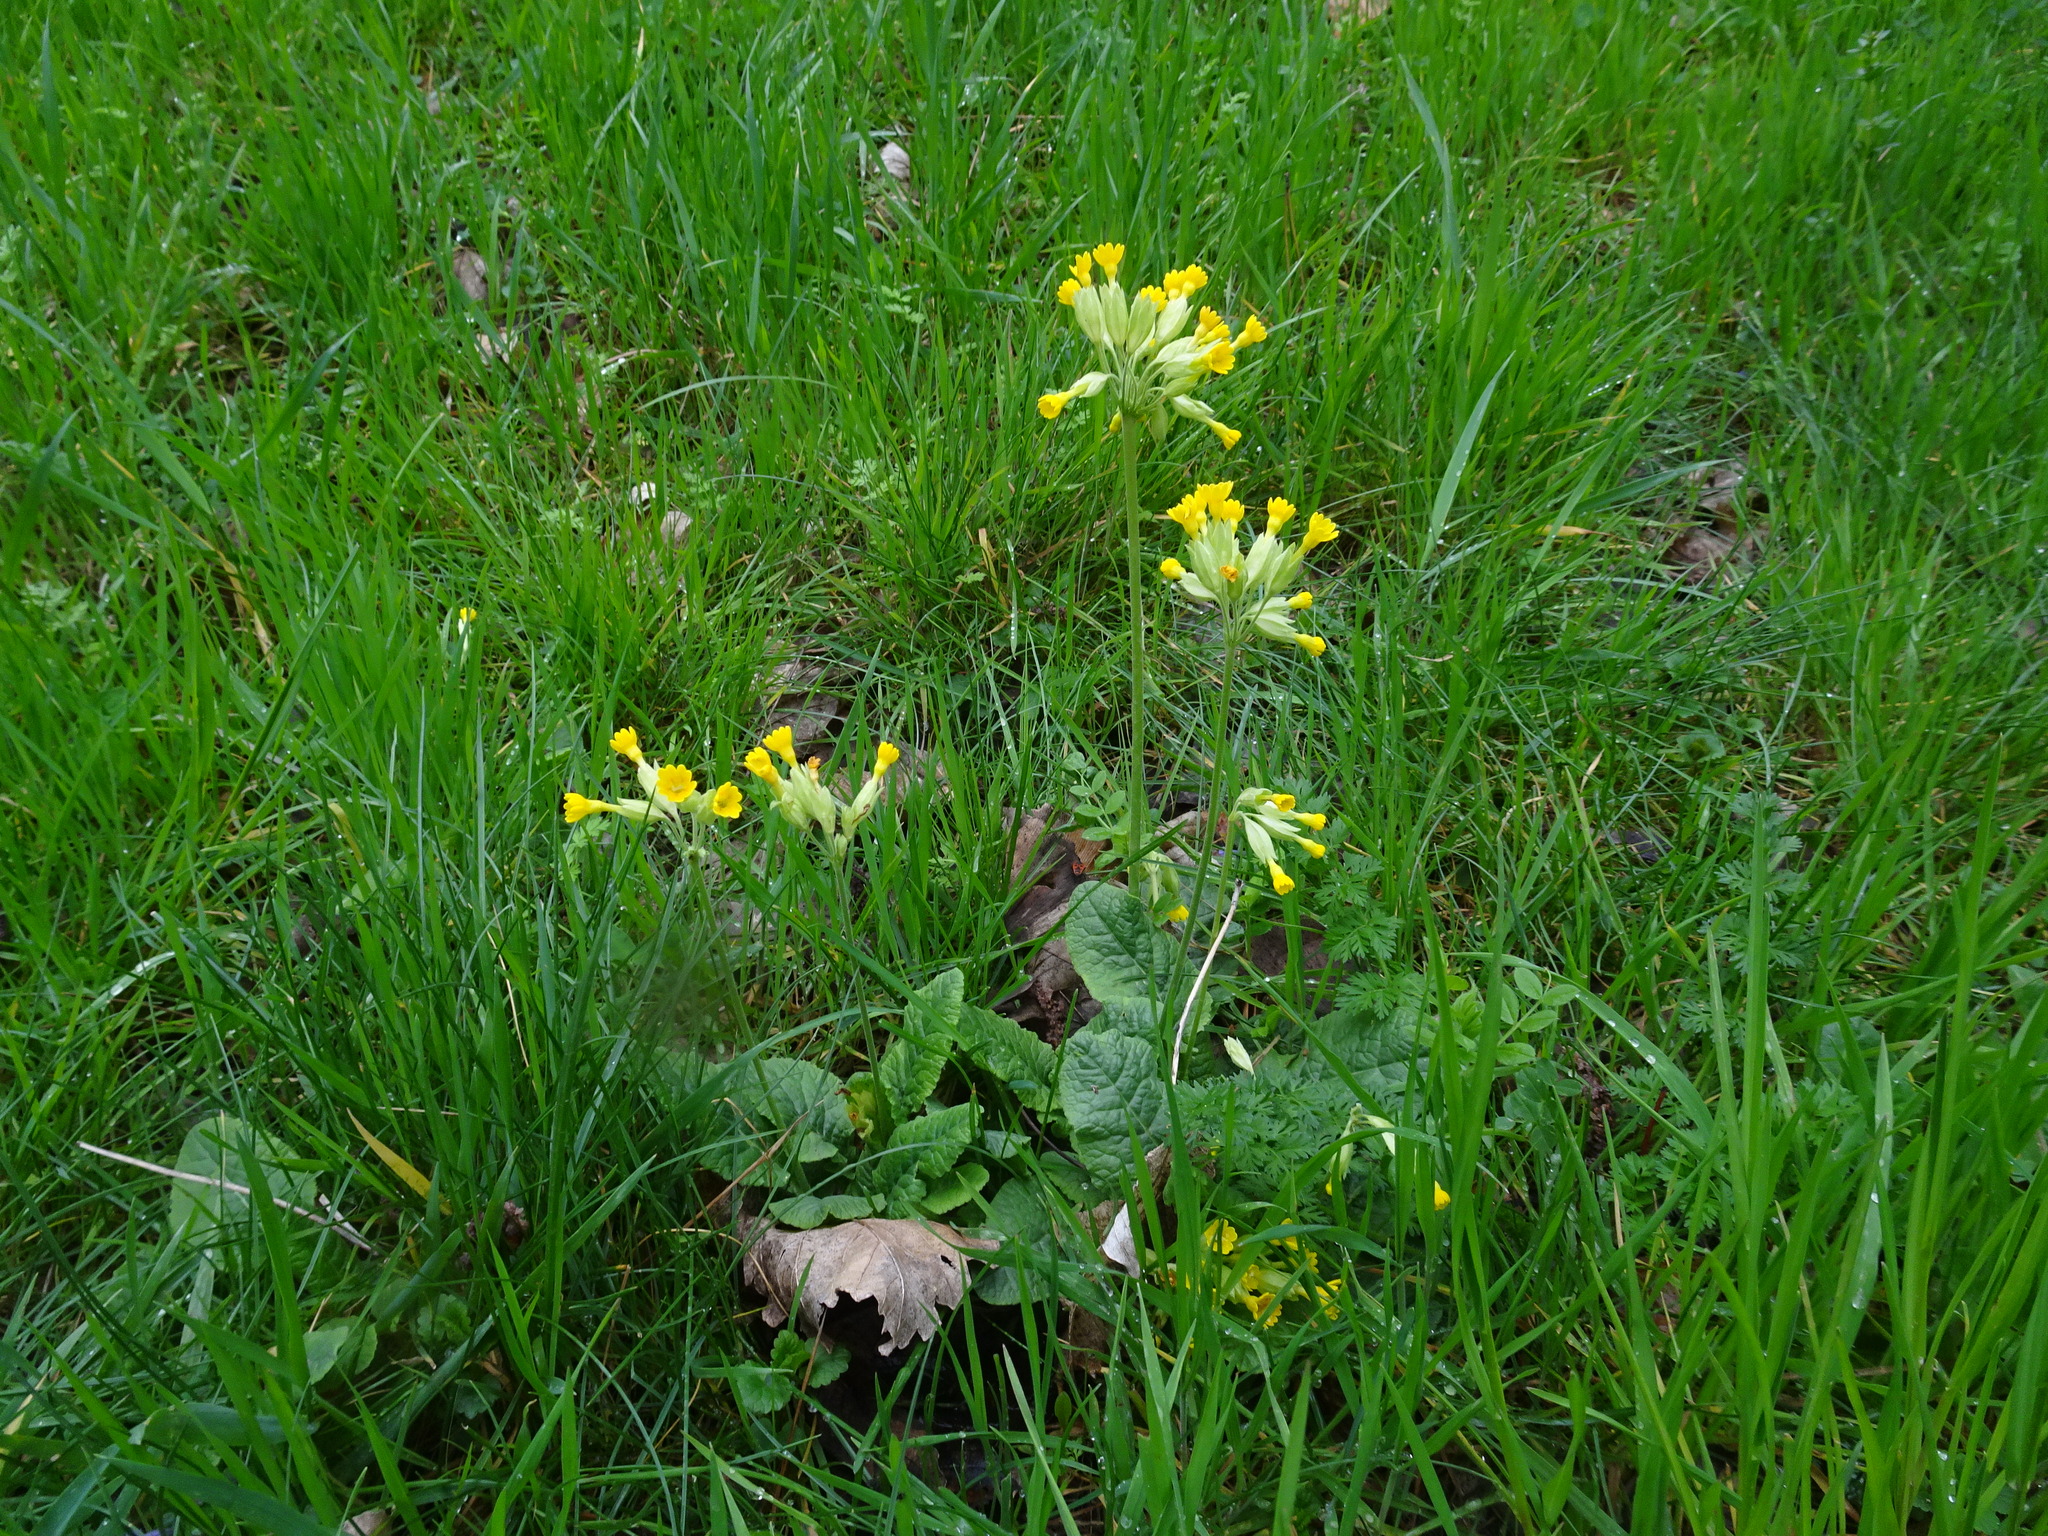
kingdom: Plantae
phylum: Tracheophyta
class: Magnoliopsida
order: Ericales
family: Primulaceae
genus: Primula
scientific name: Primula veris
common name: Cowslip
